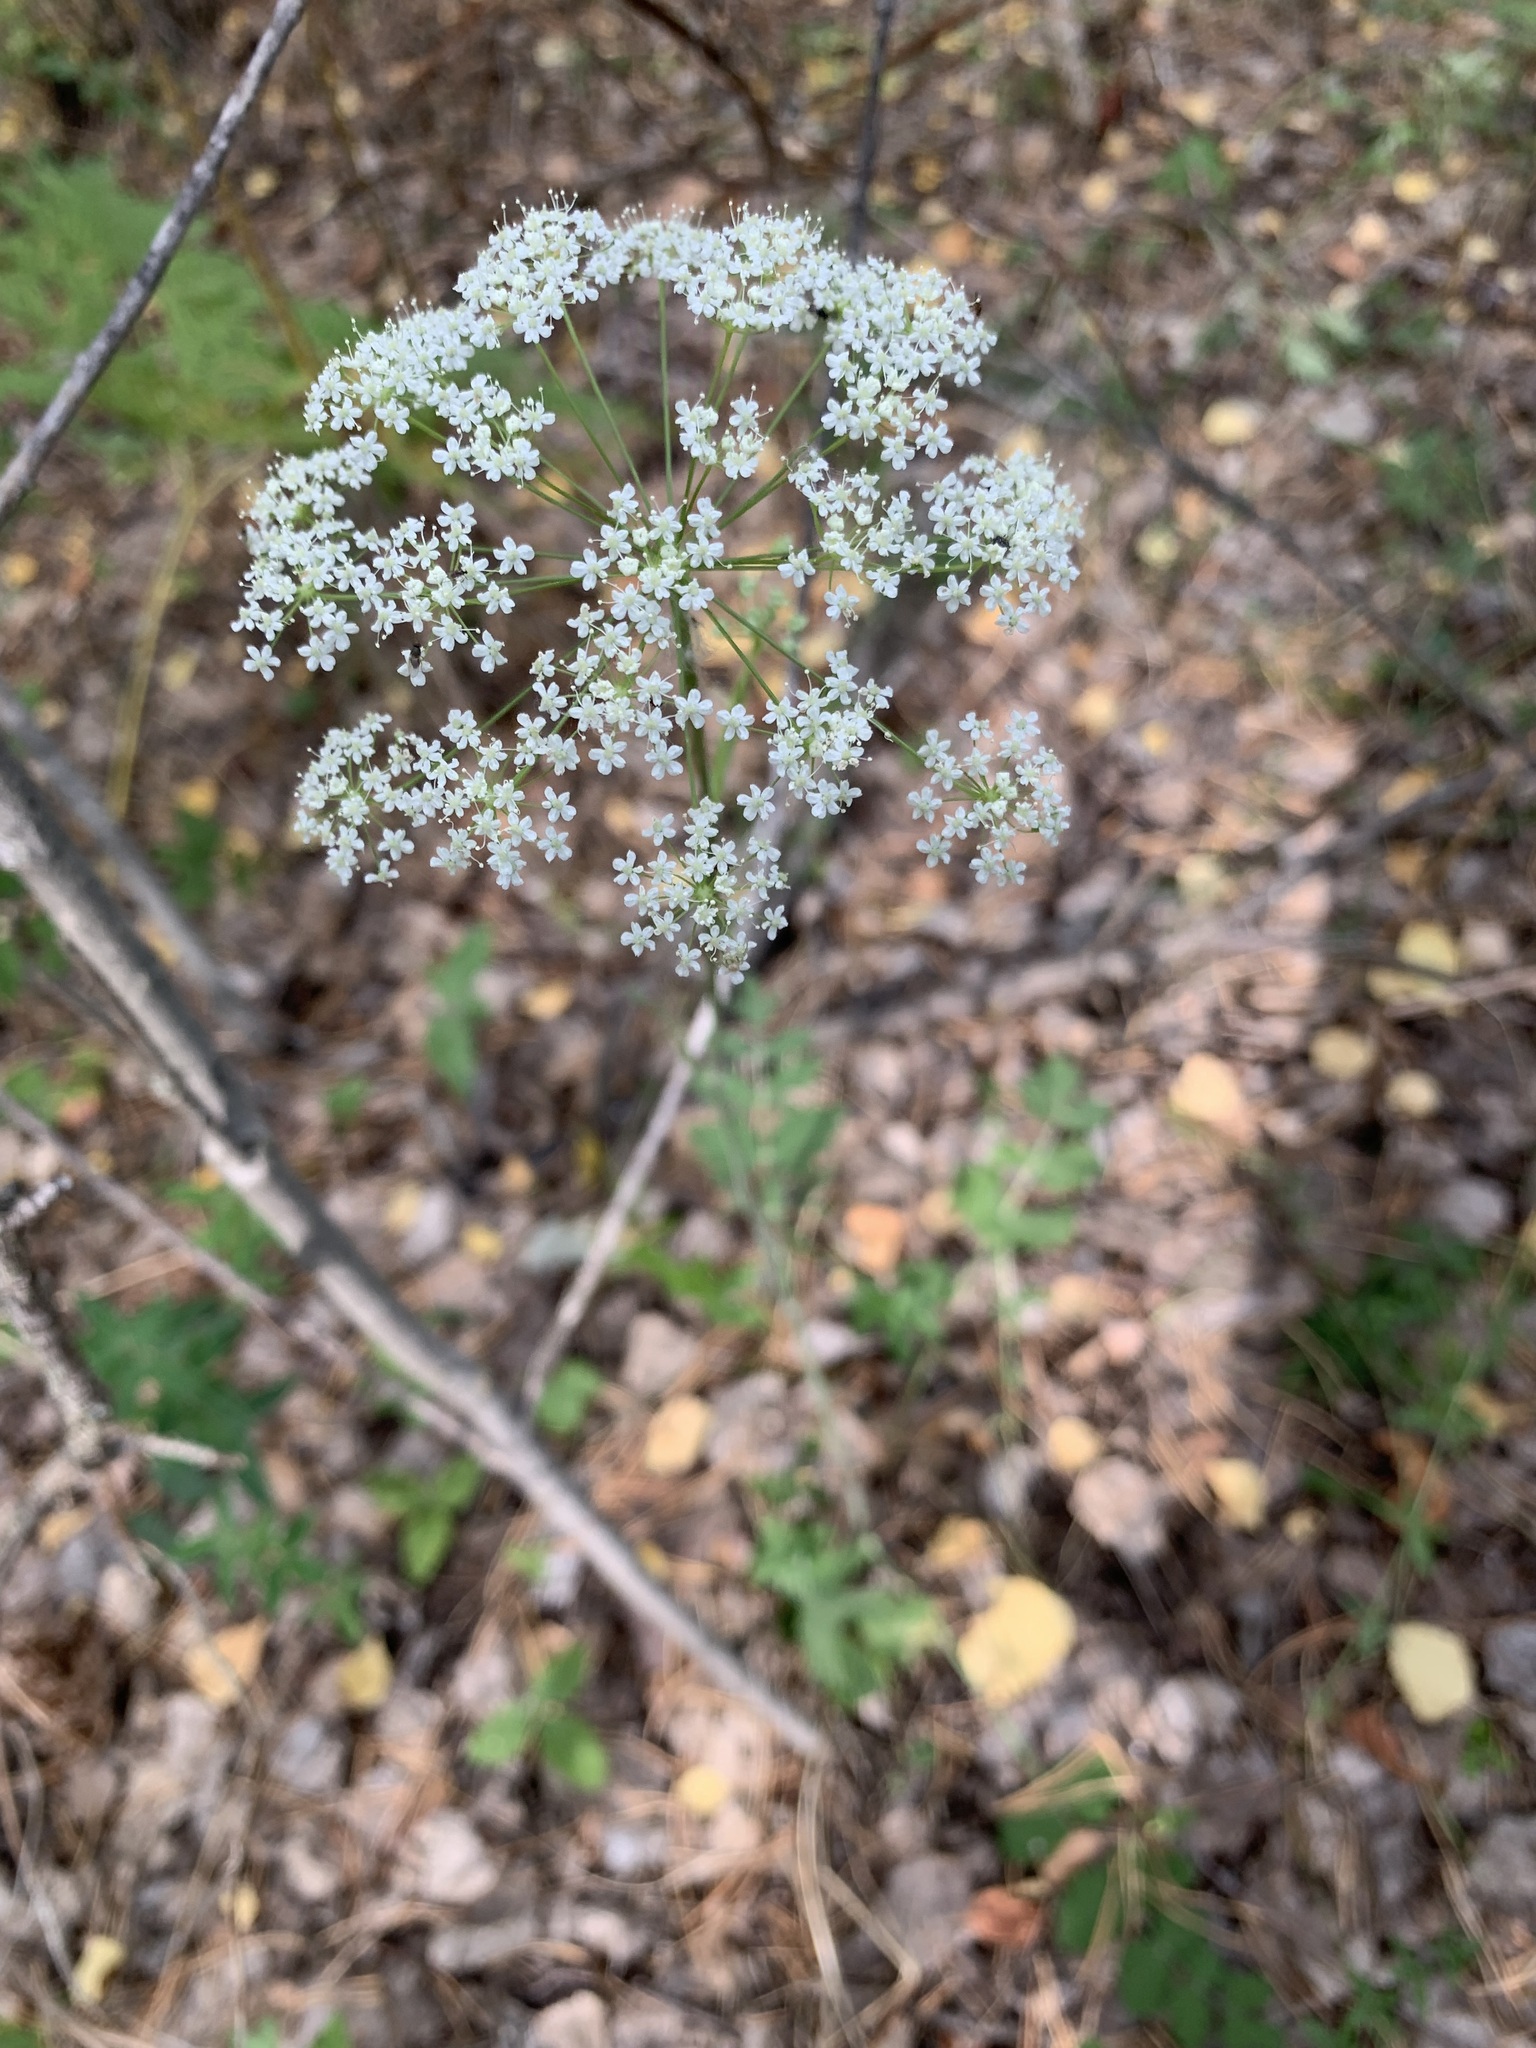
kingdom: Plantae
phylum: Tracheophyta
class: Magnoliopsida
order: Apiales
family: Apiaceae
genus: Pimpinella
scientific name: Pimpinella saxifraga
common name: Burnet-saxifrage
